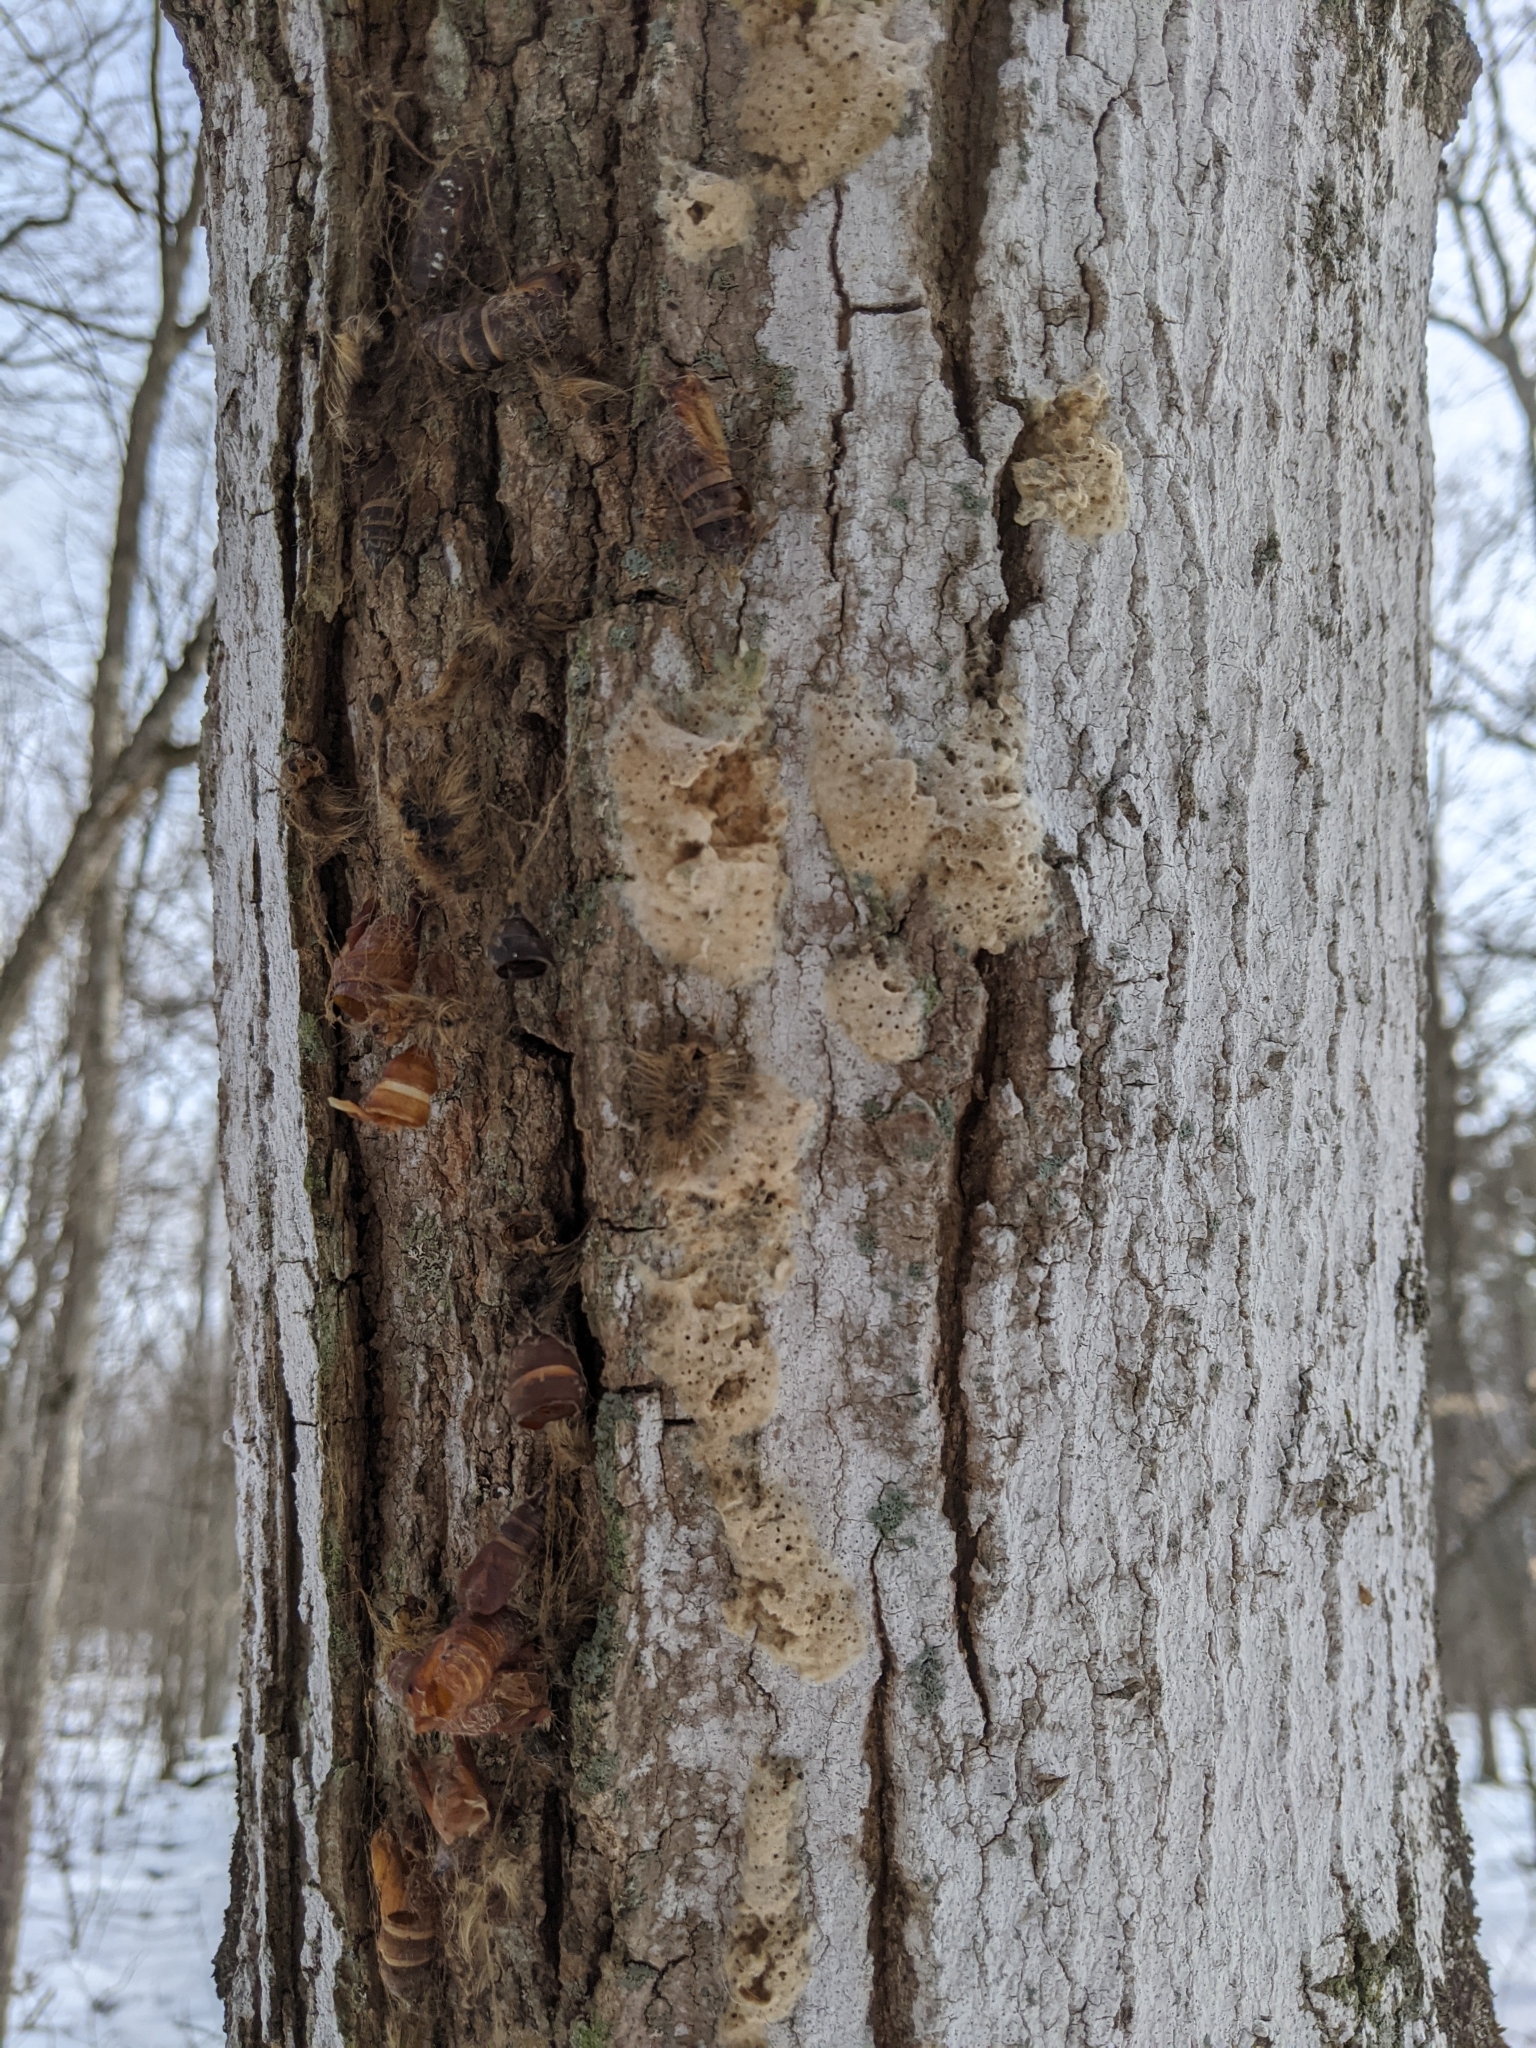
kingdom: Animalia
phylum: Arthropoda
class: Insecta
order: Lepidoptera
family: Erebidae
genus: Lymantria
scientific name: Lymantria dispar
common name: Gypsy moth
